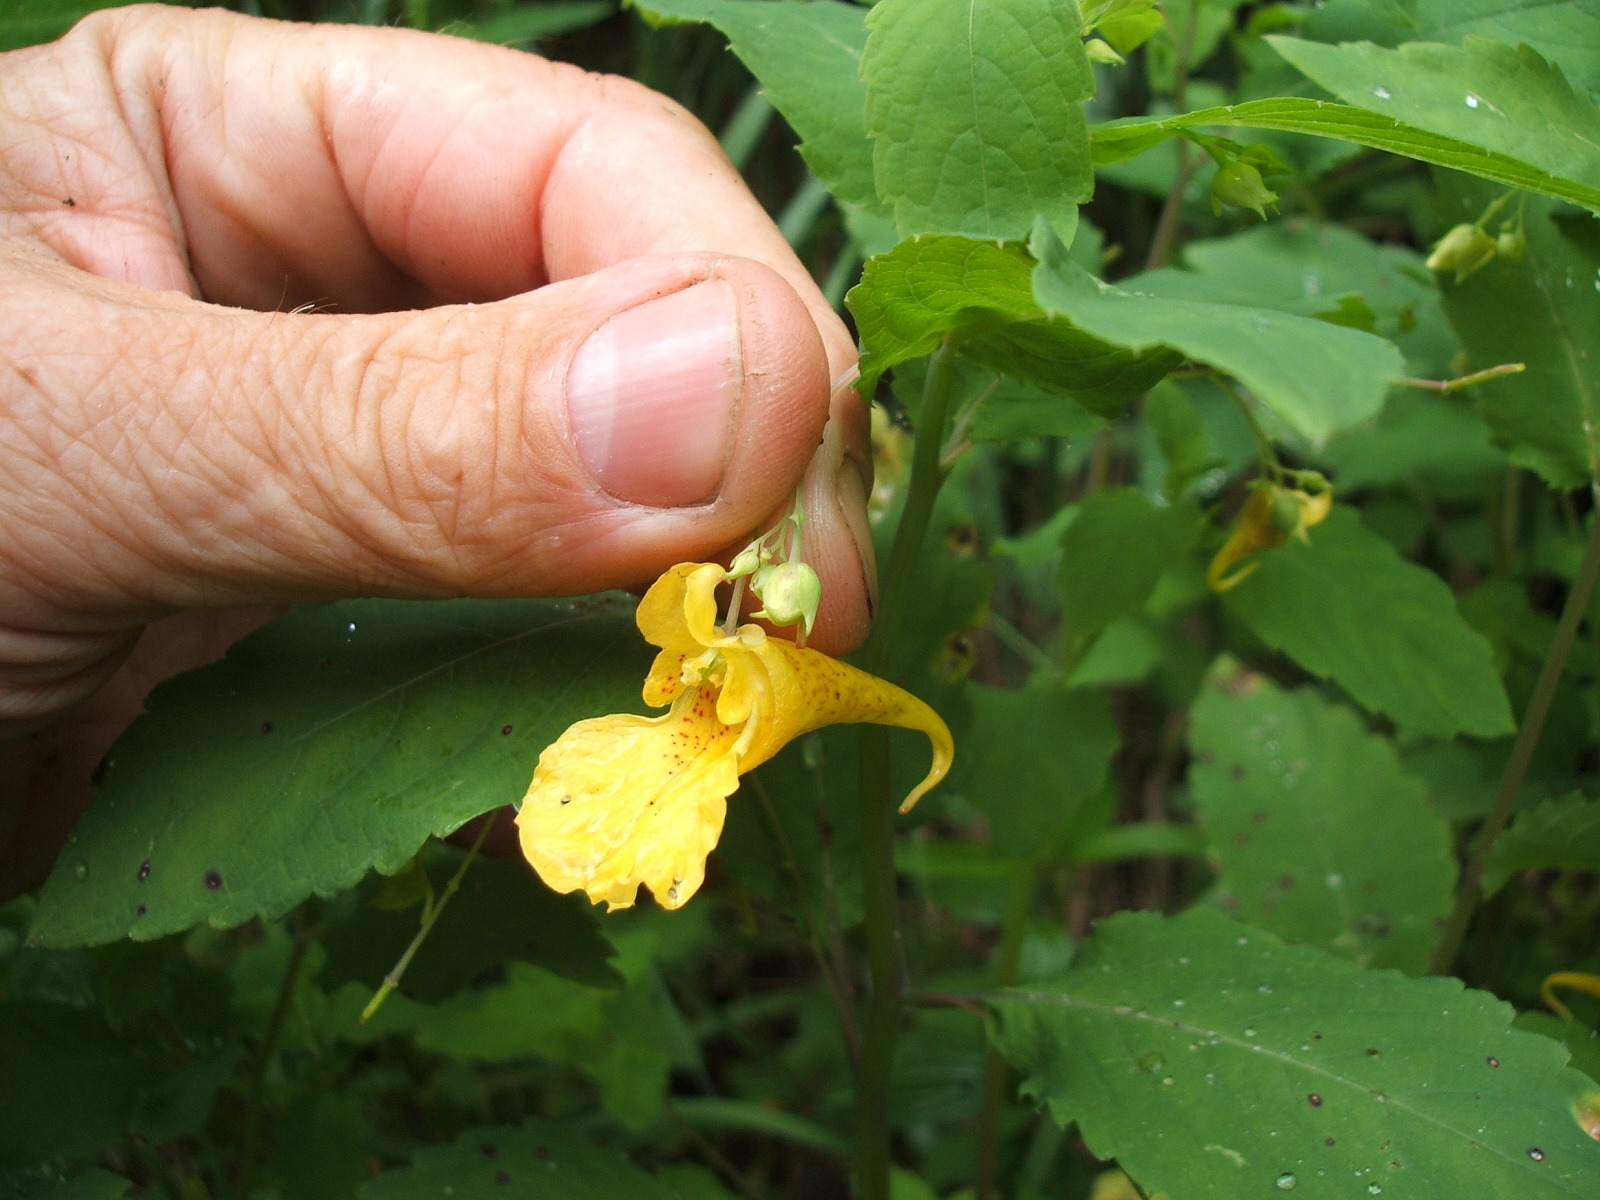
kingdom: Plantae
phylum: Tracheophyta
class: Magnoliopsida
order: Ericales
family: Balsaminaceae
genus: Impatiens
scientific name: Impatiens noli-tangere
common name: Touch-me-not balsam
